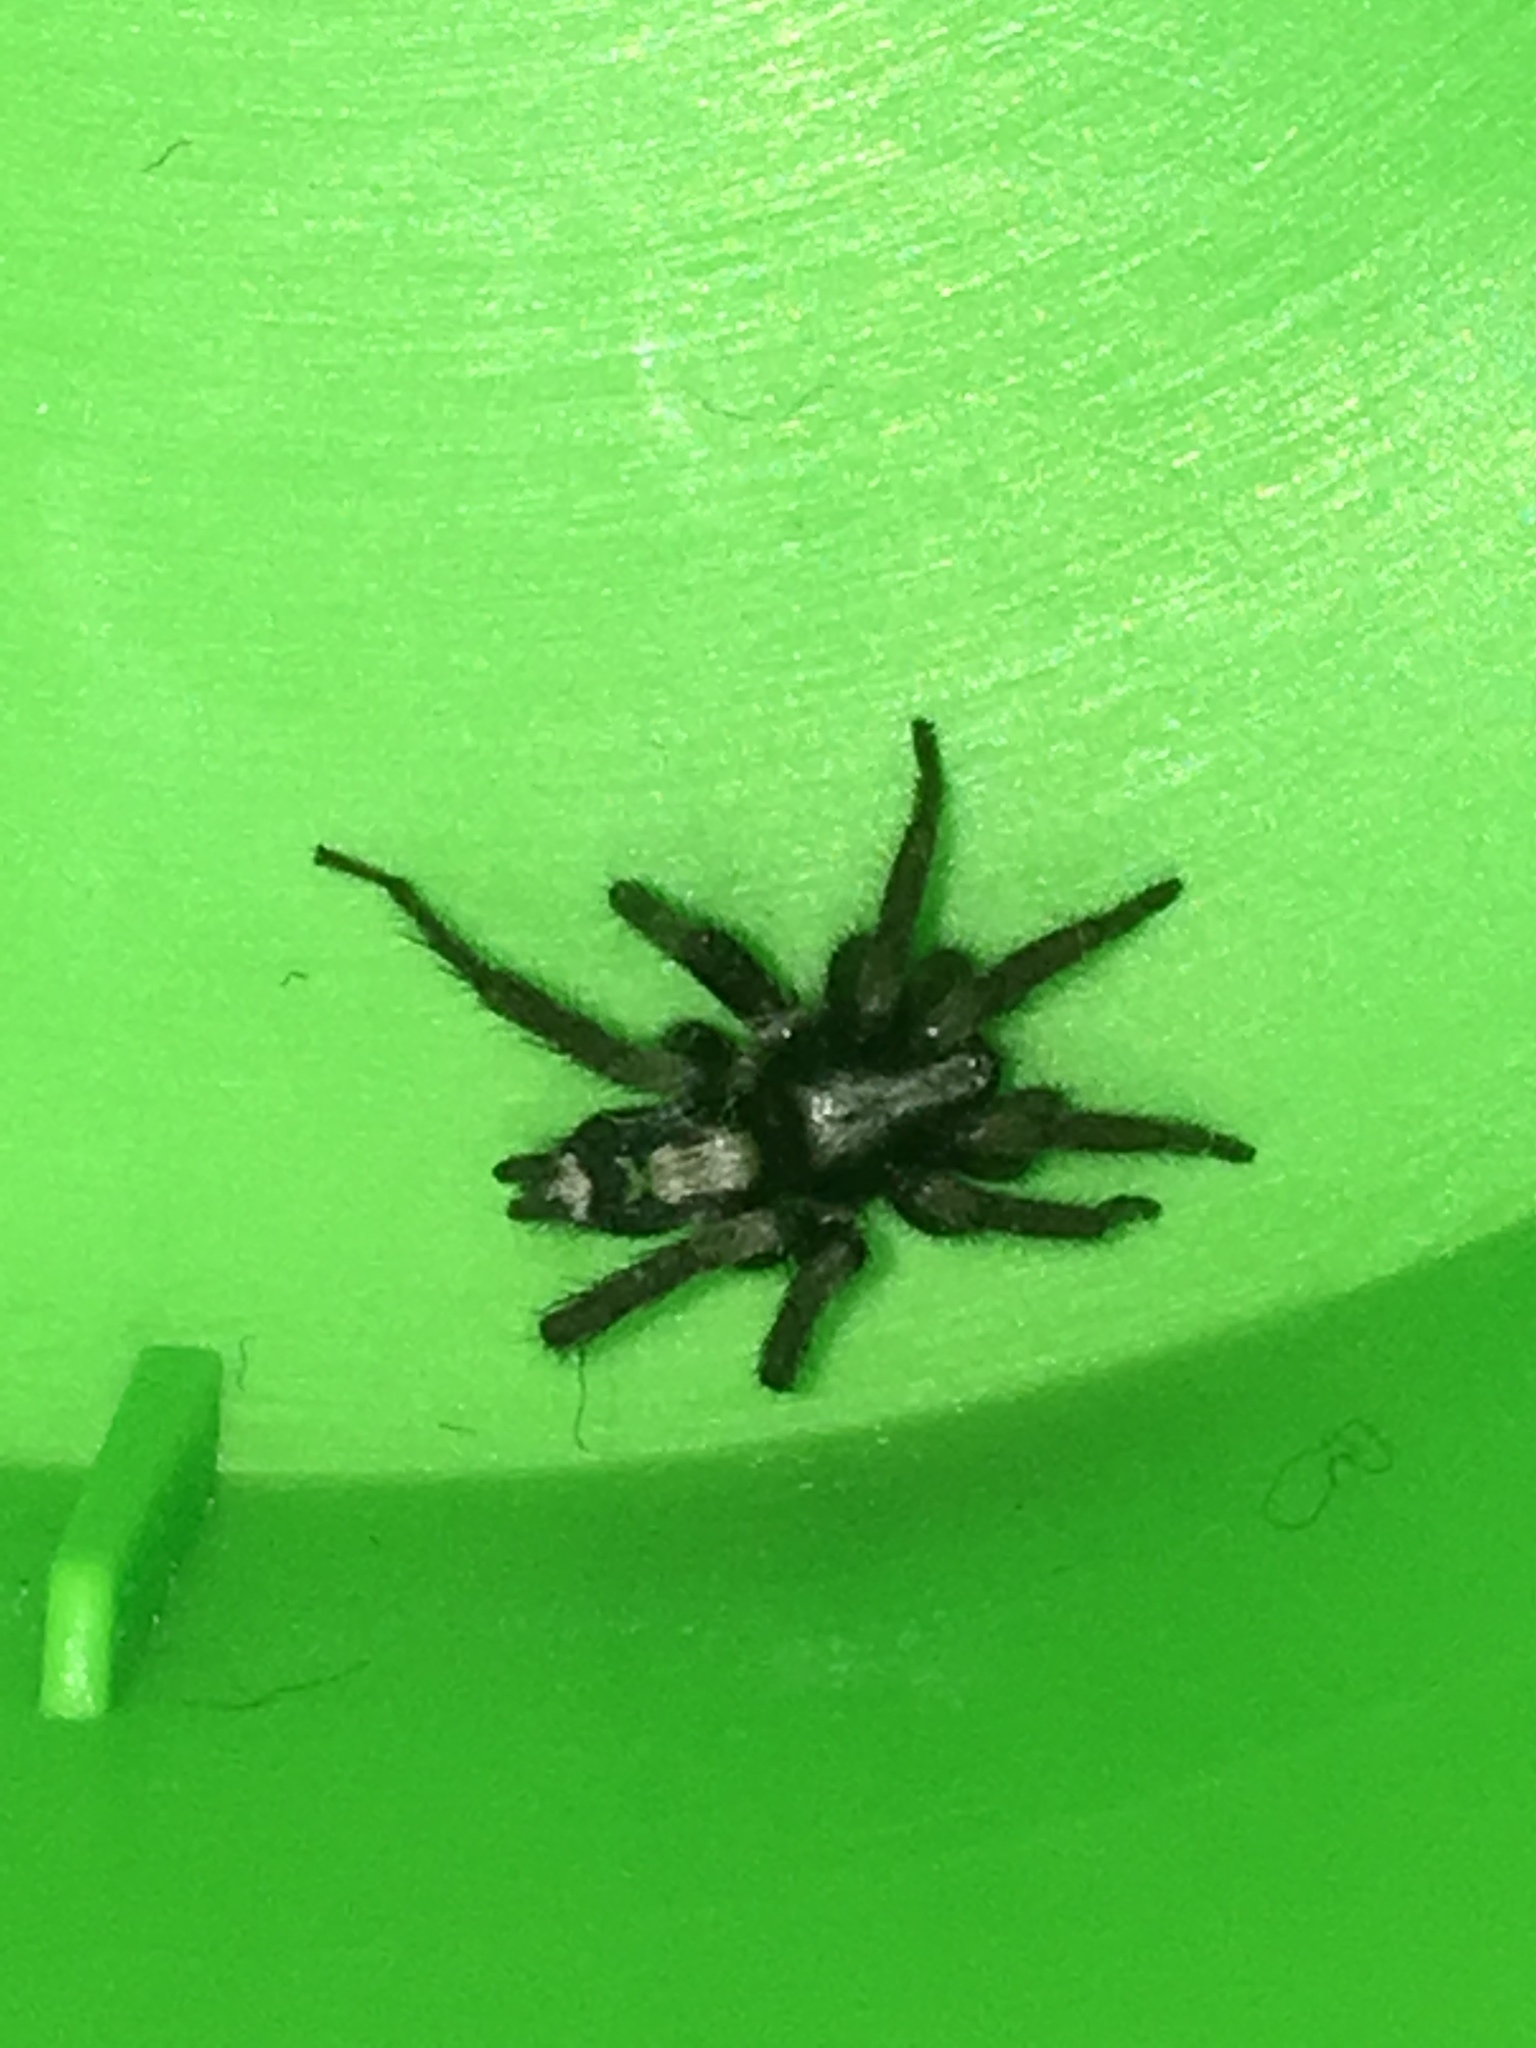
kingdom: Animalia
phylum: Arthropoda
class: Arachnida
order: Araneae
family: Gnaphosidae
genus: Herpyllus
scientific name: Herpyllus ecclesiasticus
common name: Eastern parson spider
